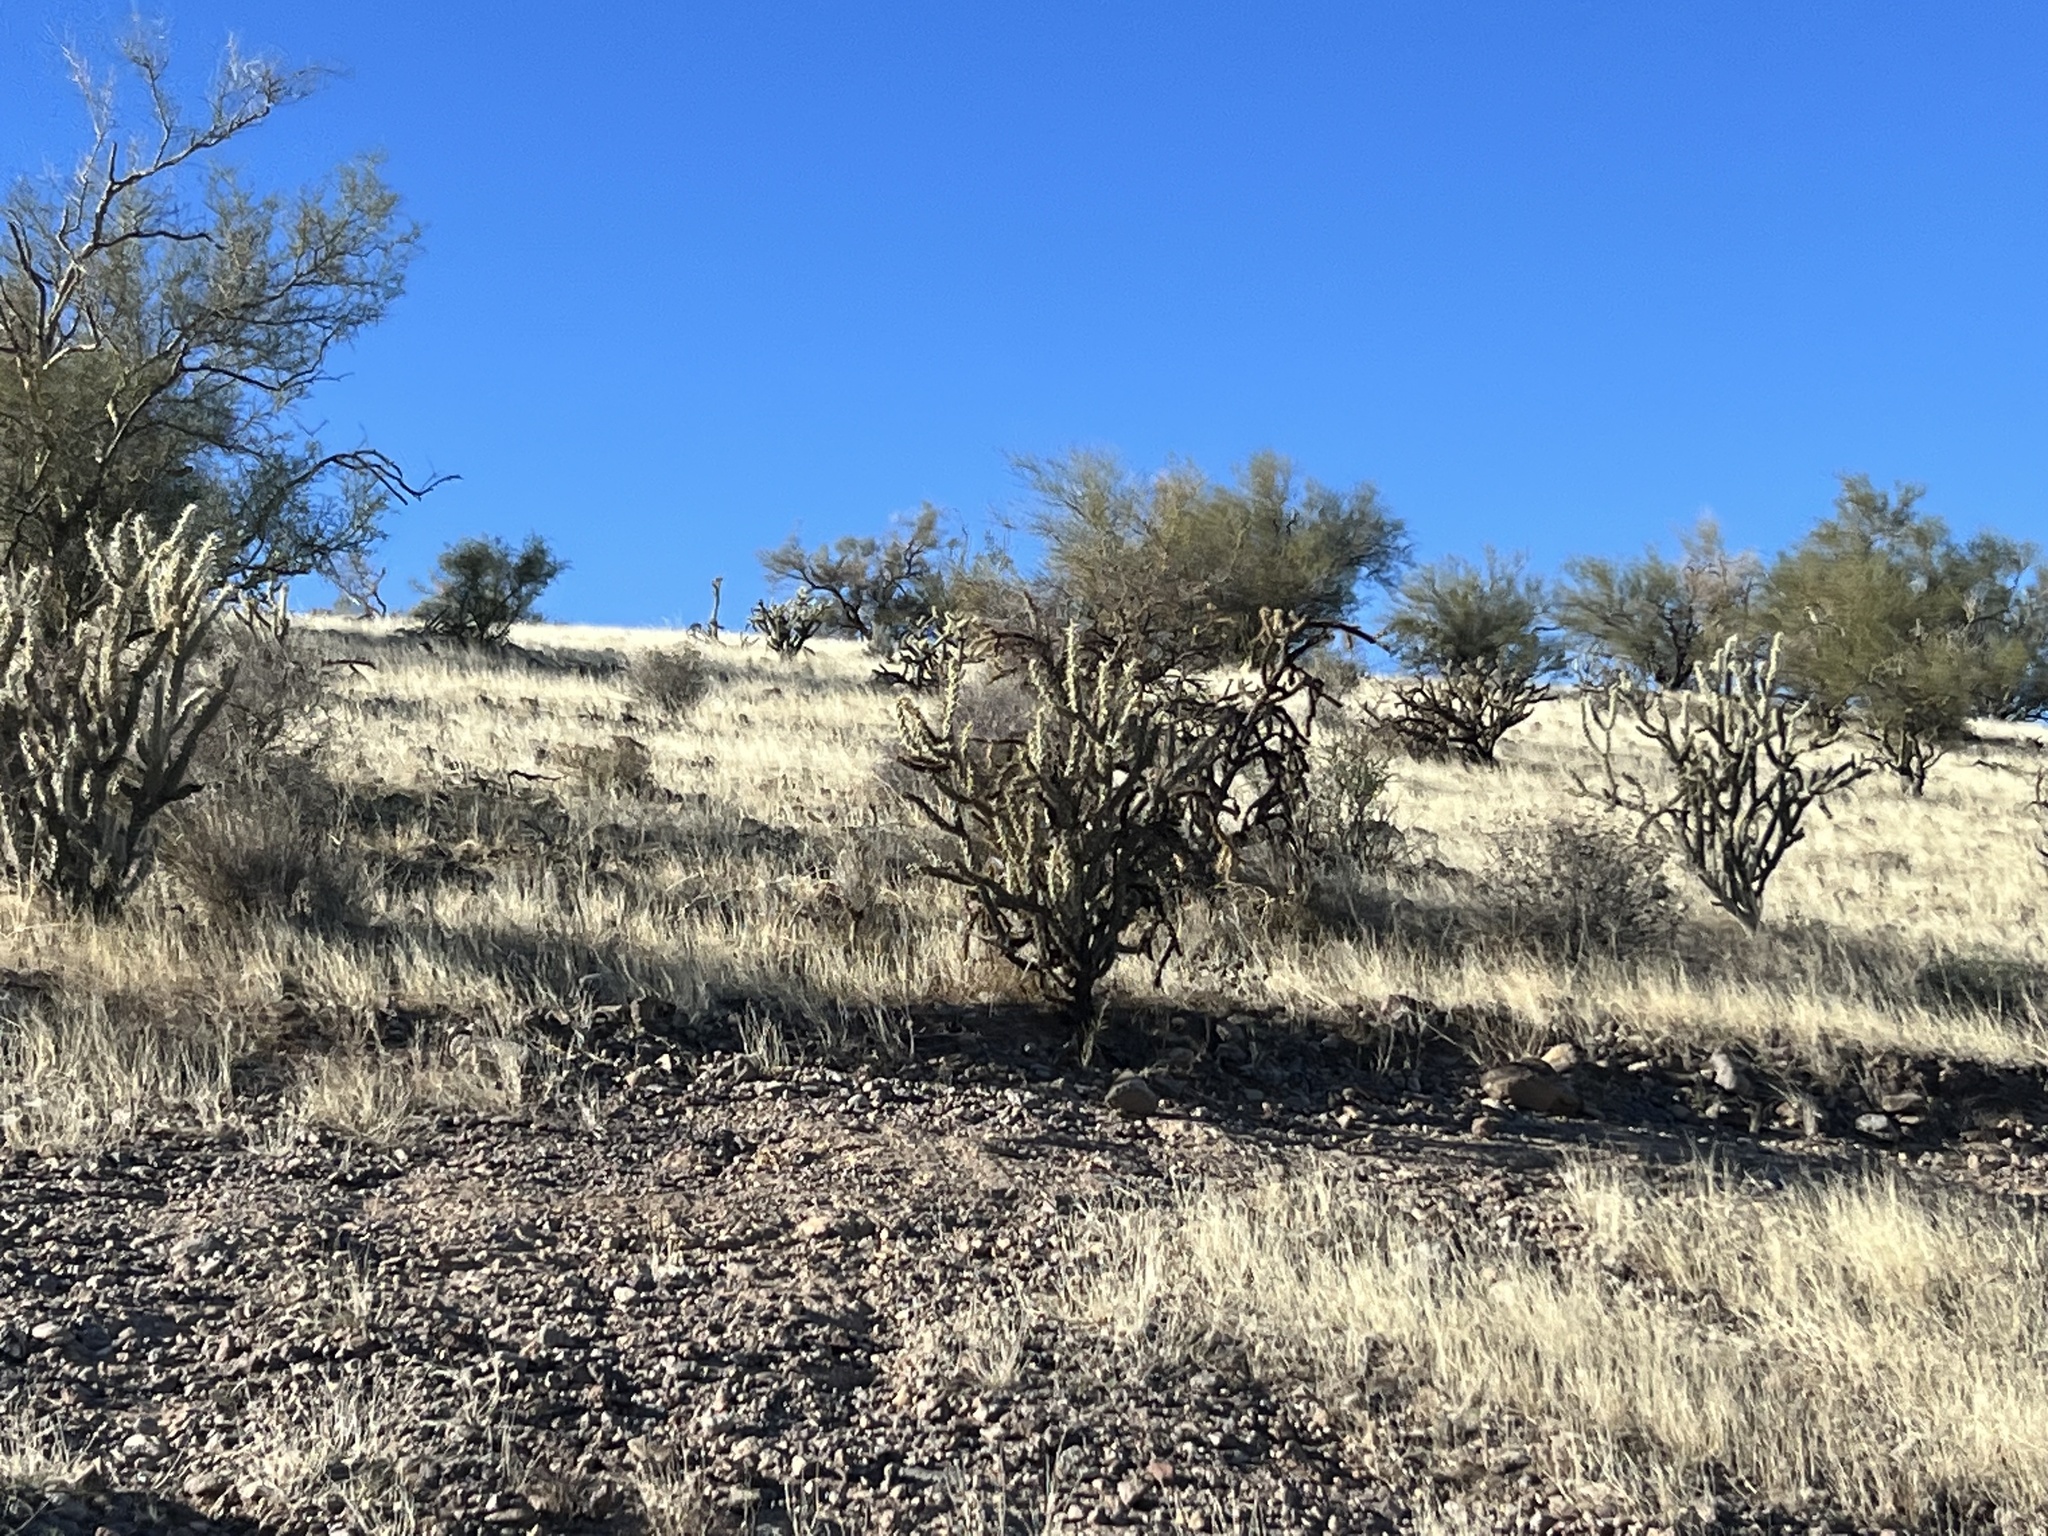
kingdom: Plantae
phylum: Tracheophyta
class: Magnoliopsida
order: Caryophyllales
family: Cactaceae
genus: Cylindropuntia
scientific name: Cylindropuntia acanthocarpa
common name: Buckhorn cholla
